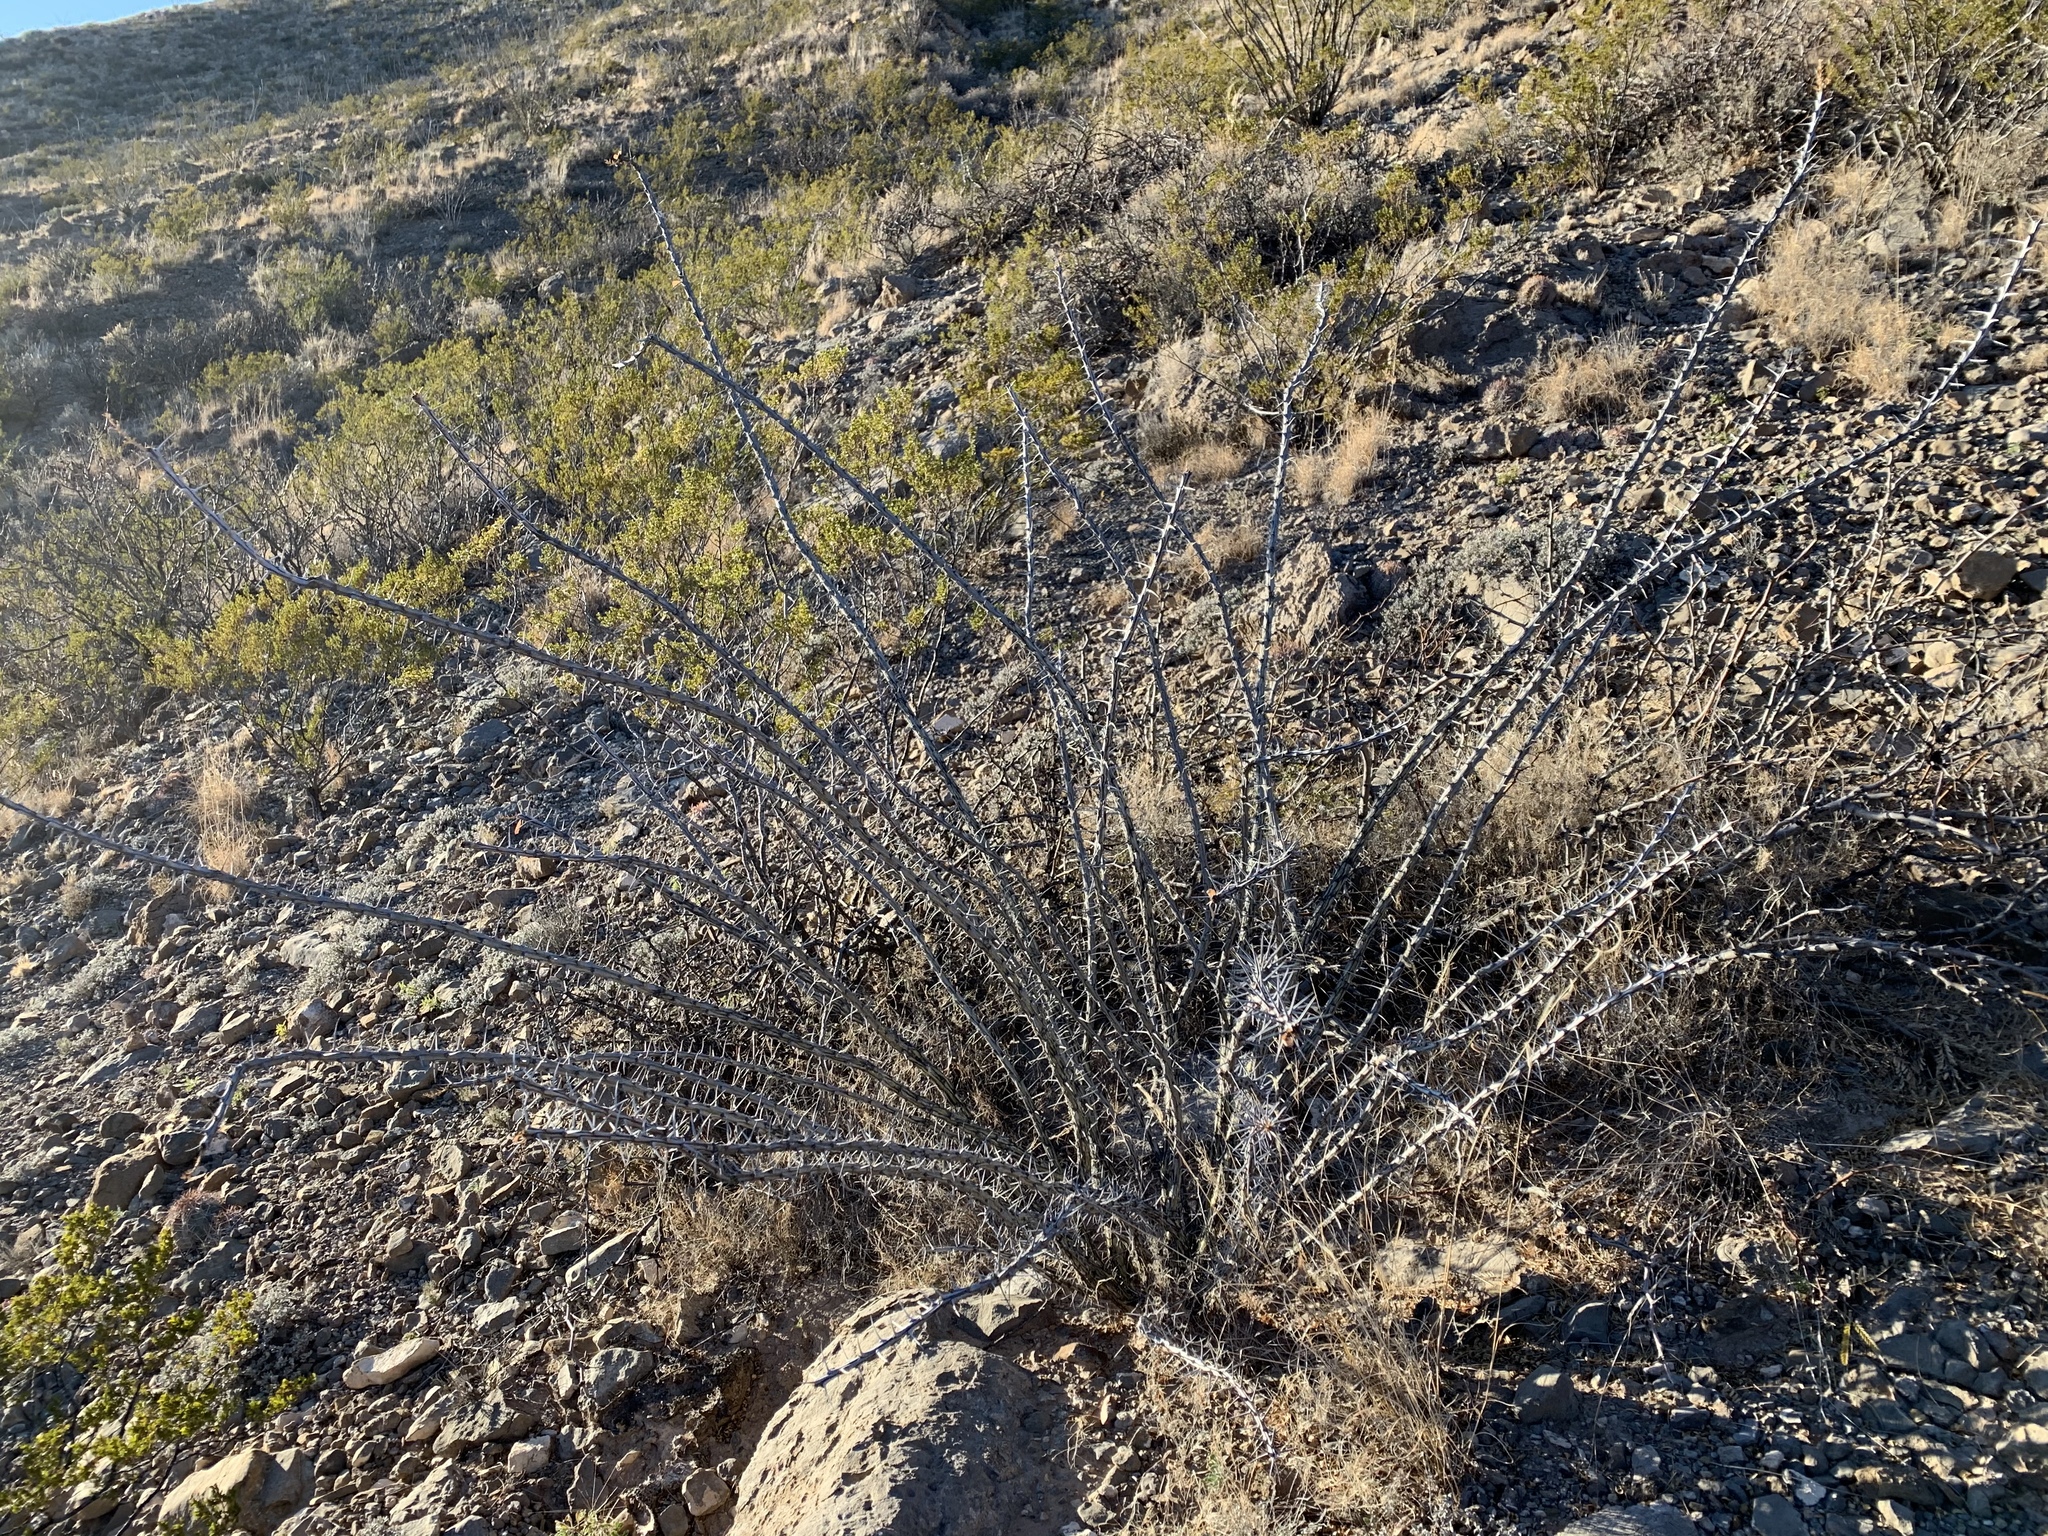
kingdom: Plantae
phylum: Tracheophyta
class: Magnoliopsida
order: Ericales
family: Fouquieriaceae
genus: Fouquieria
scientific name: Fouquieria splendens
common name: Vine-cactus
